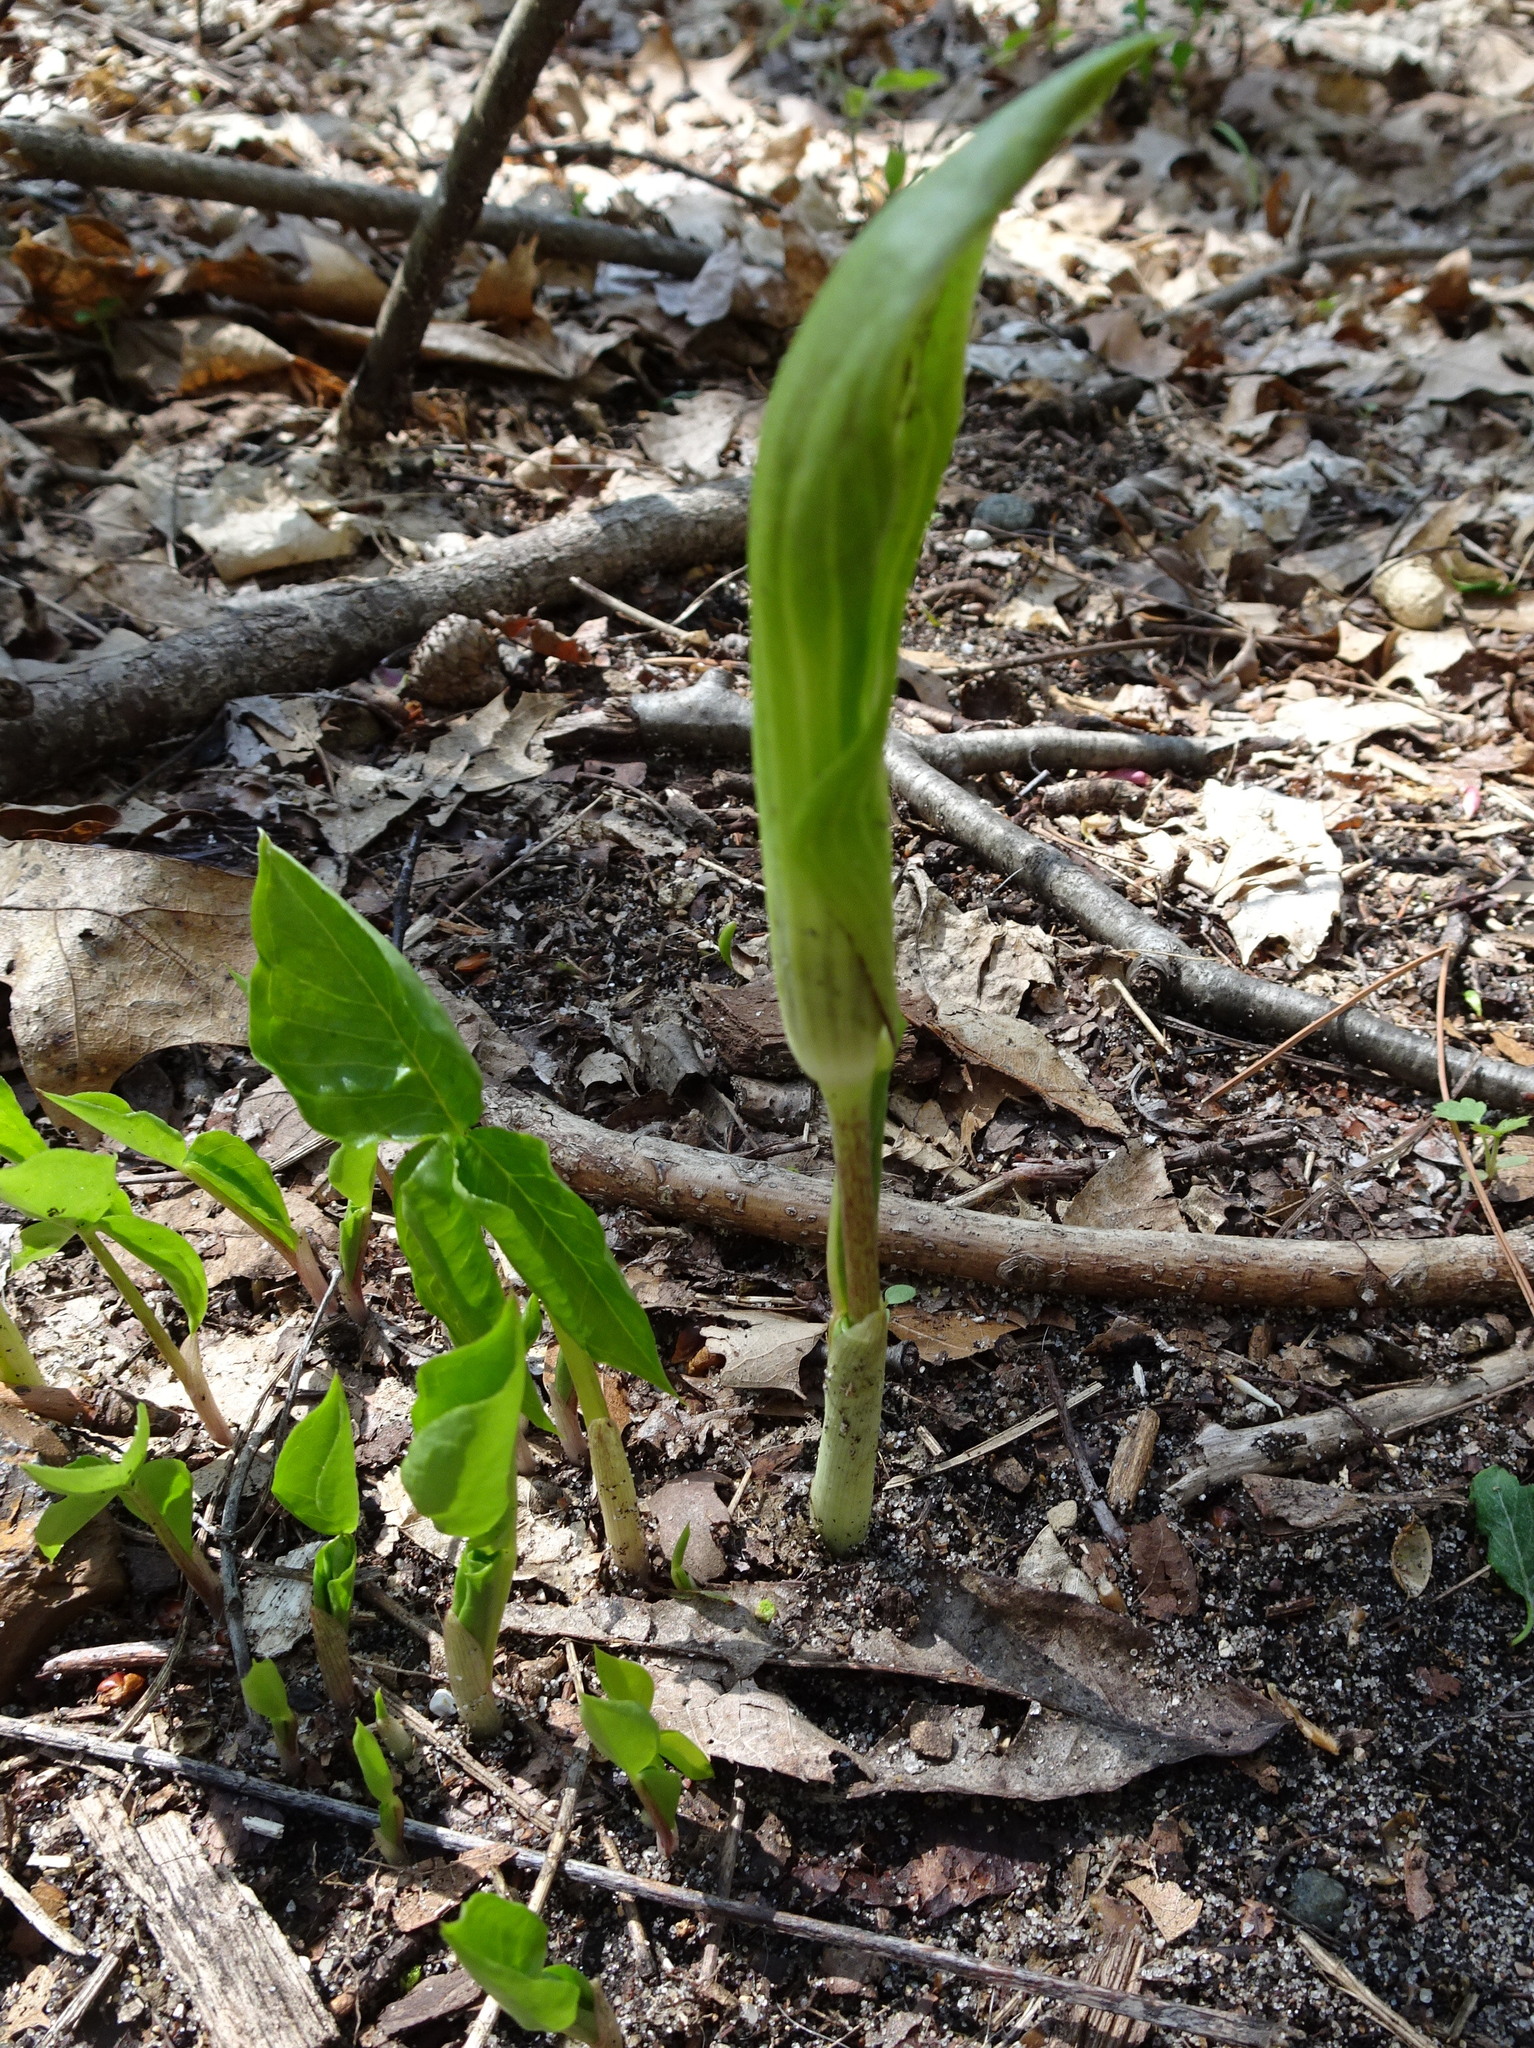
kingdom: Plantae
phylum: Tracheophyta
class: Liliopsida
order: Alismatales
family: Araceae
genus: Arisaema
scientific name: Arisaema triphyllum
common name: Jack-in-the-pulpit
